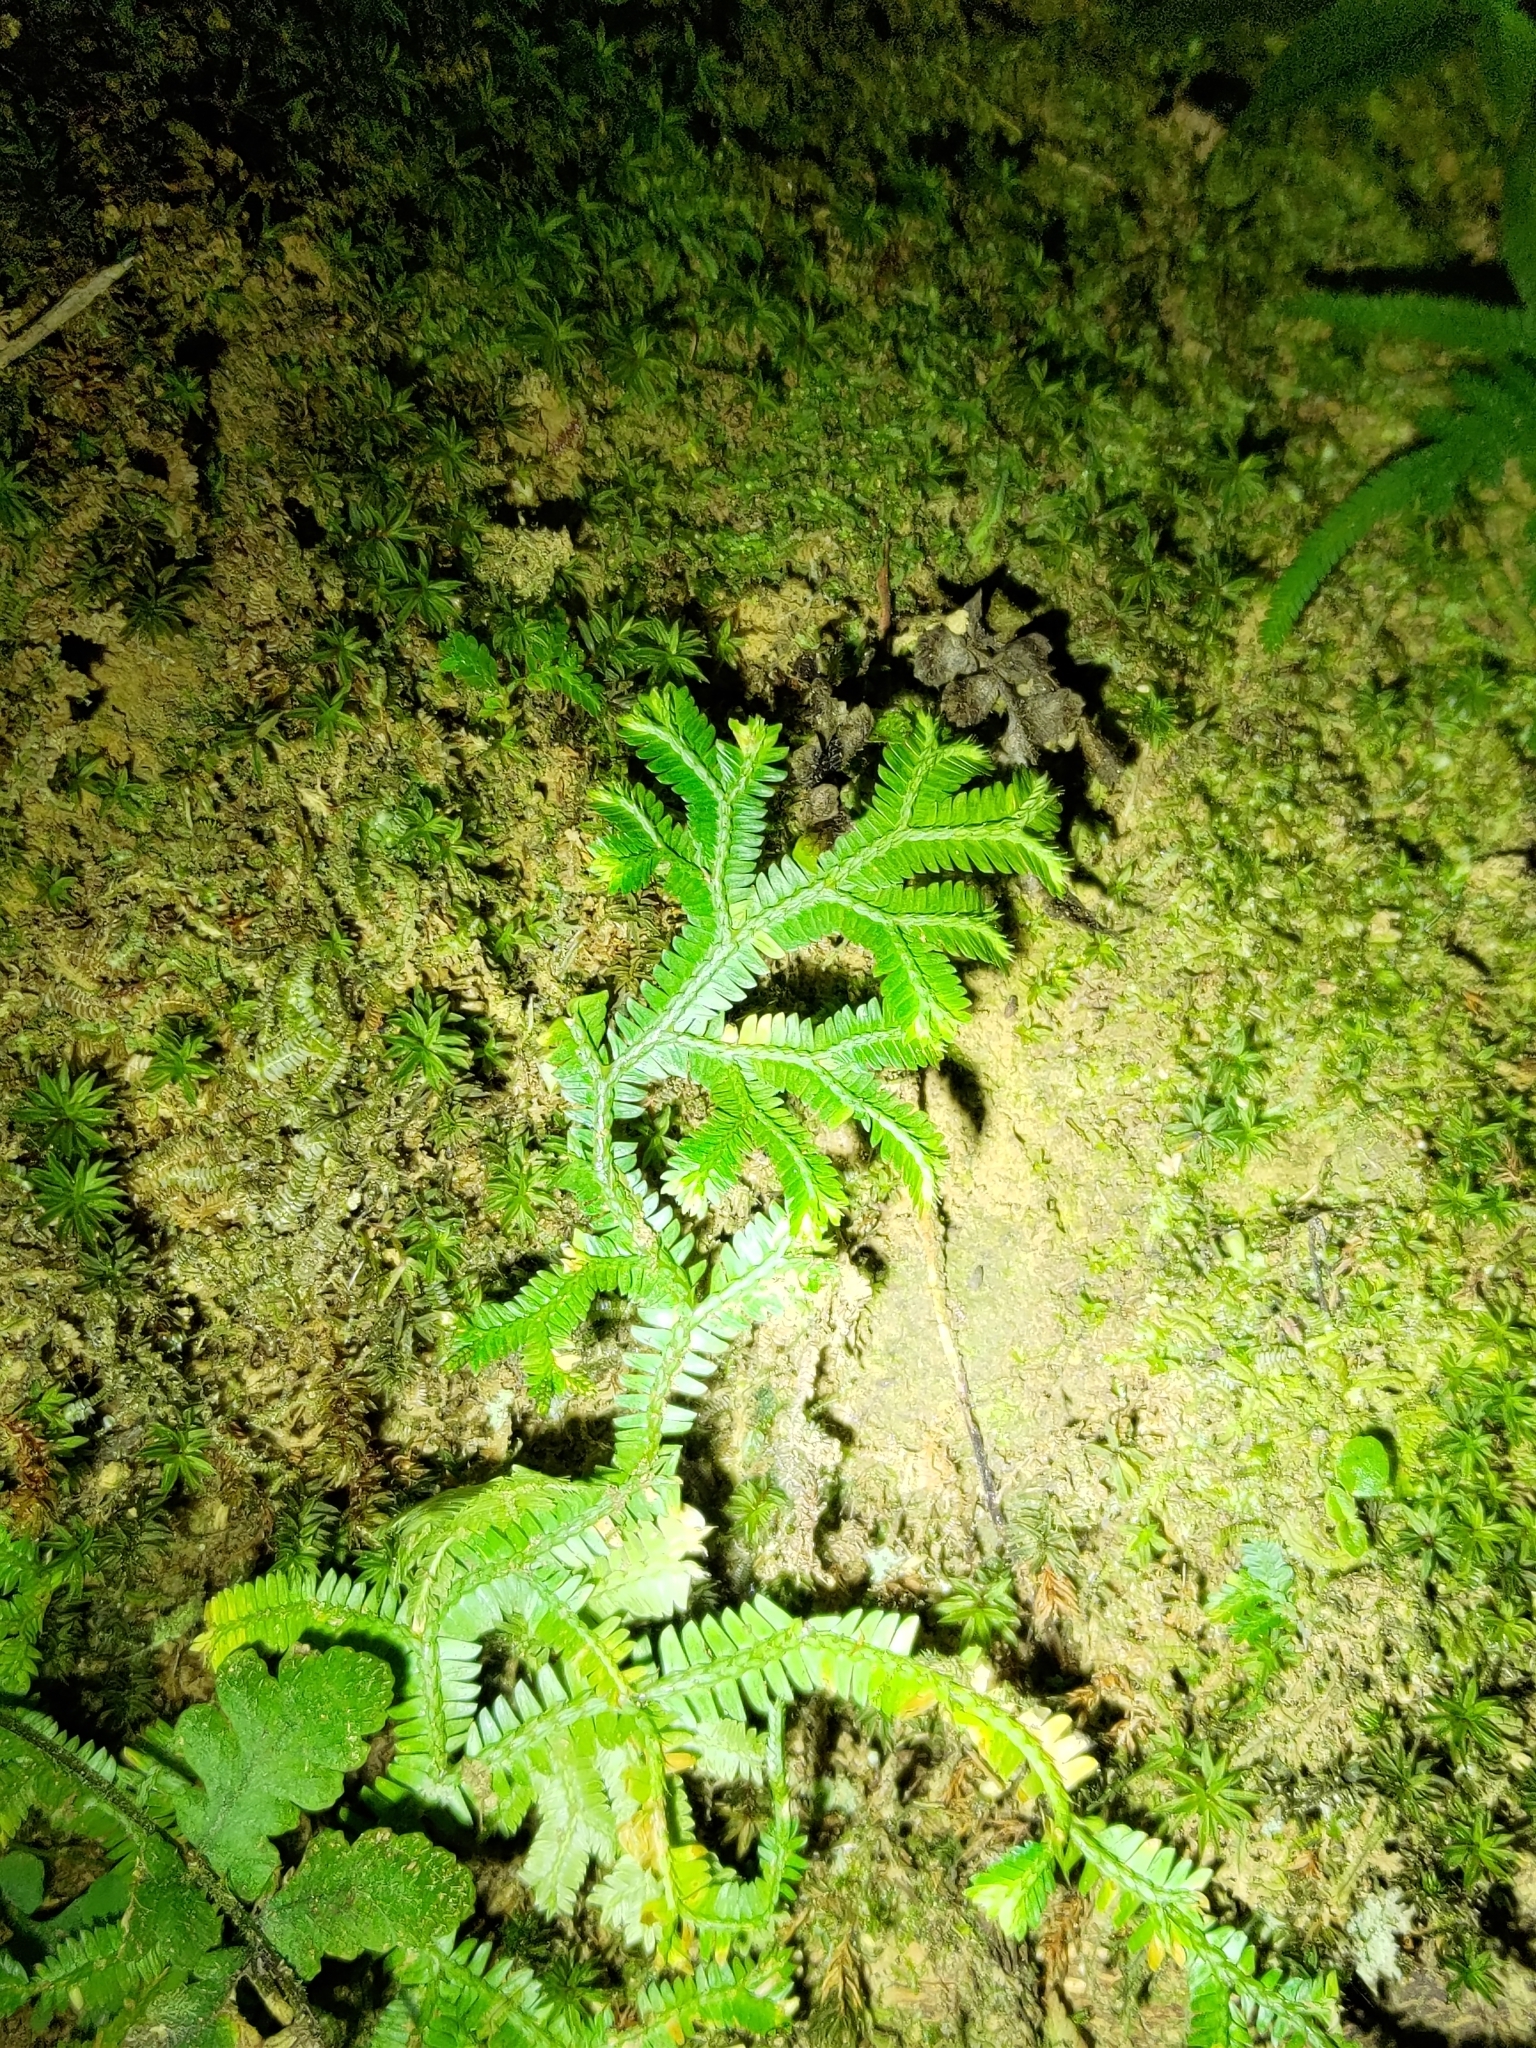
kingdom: Plantae
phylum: Tracheophyta
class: Lycopodiopsida
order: Selaginellales
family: Selaginellaceae
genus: Selaginella
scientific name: Selaginella doederleinii
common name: Greater selaginella
